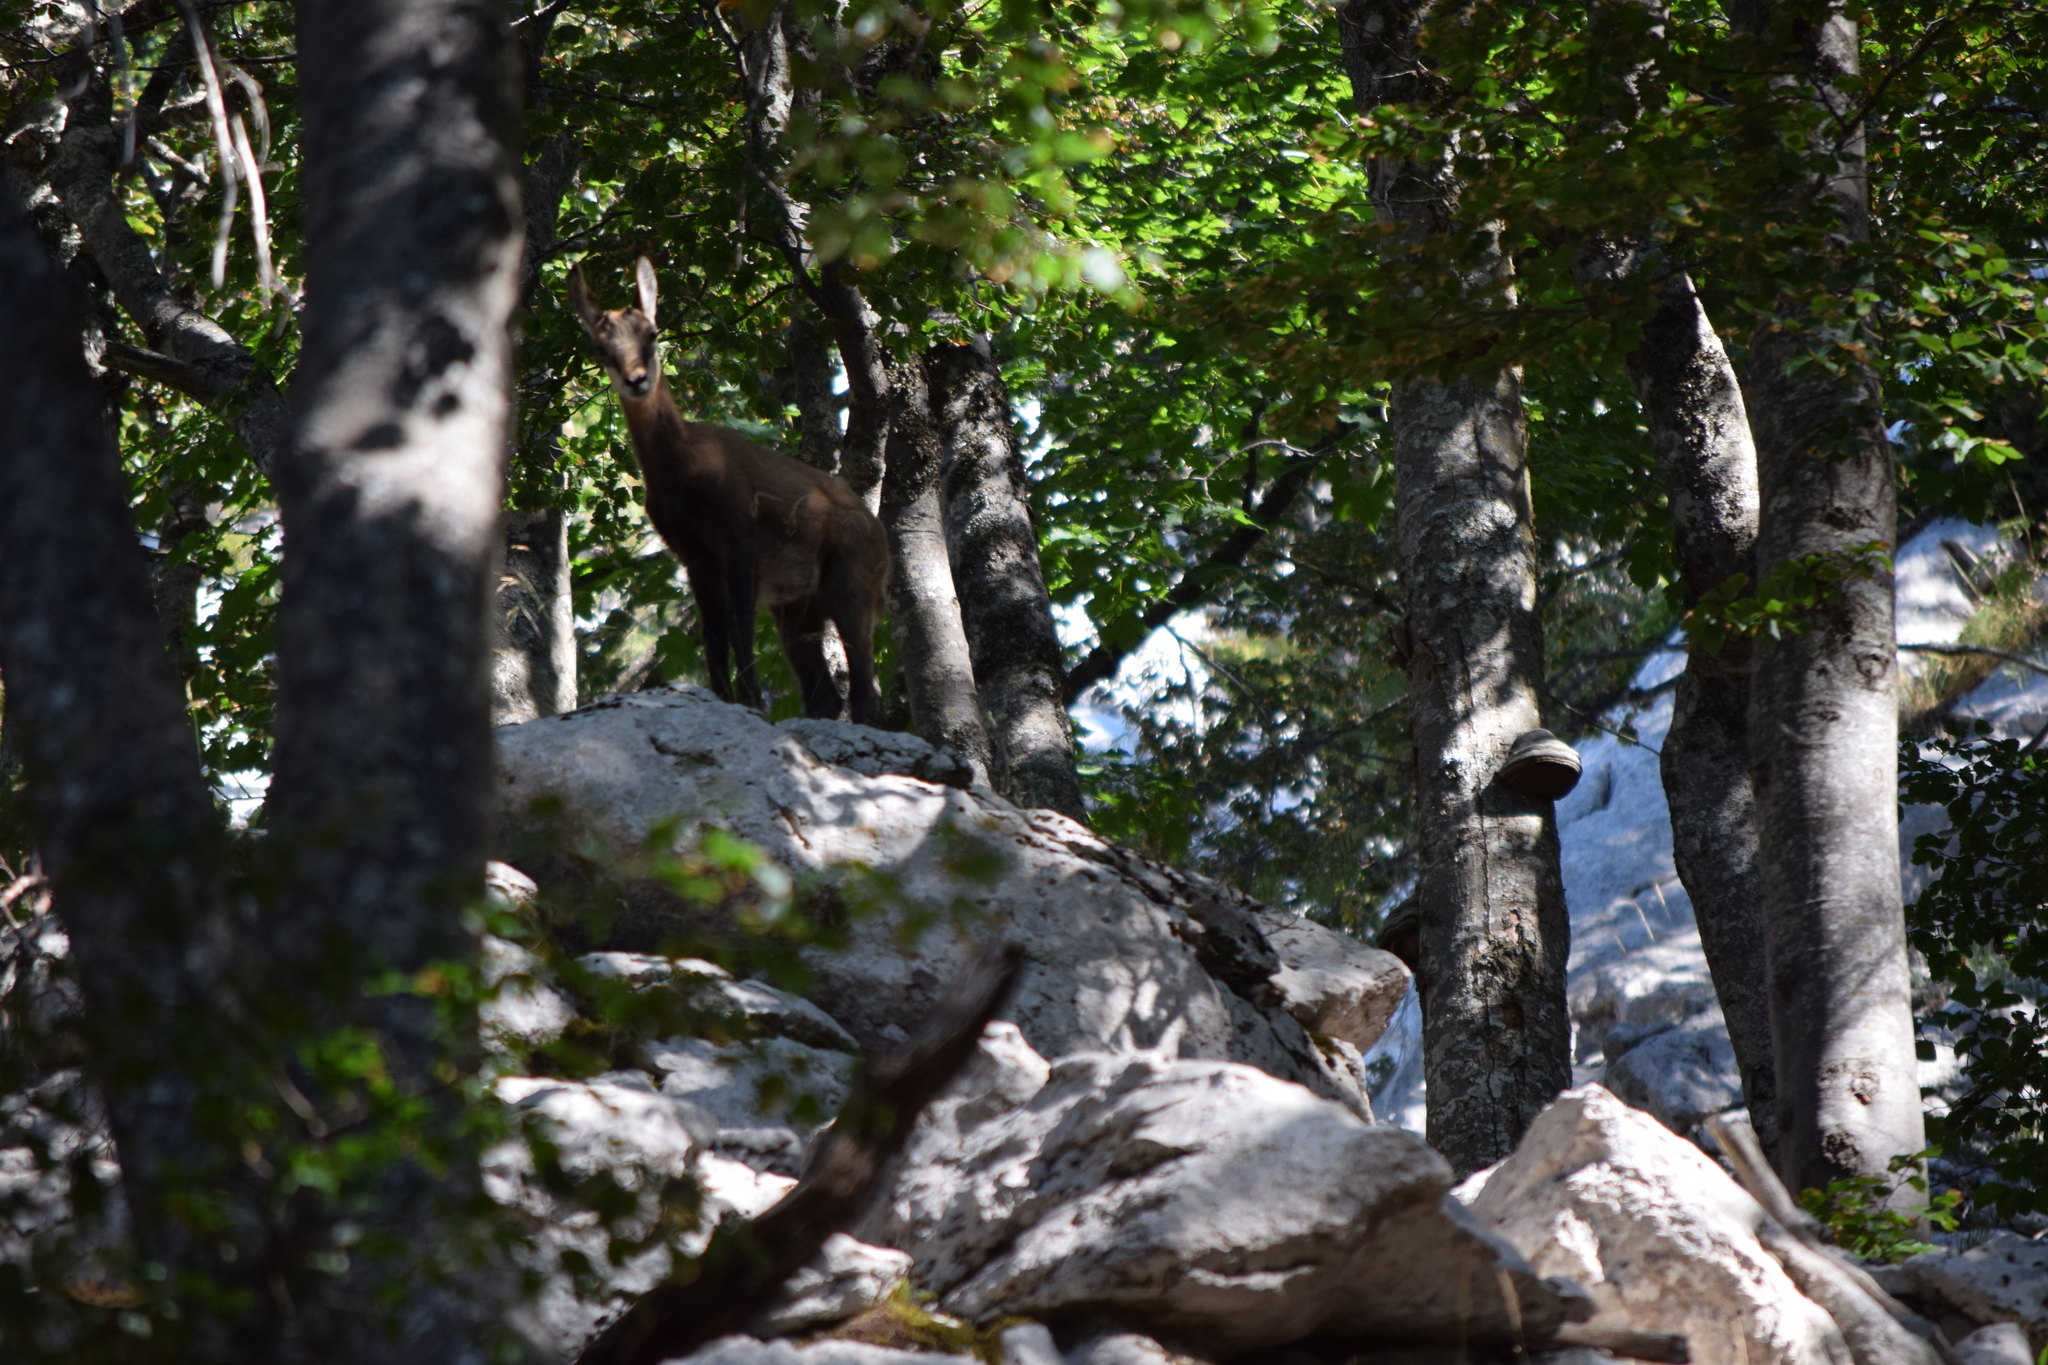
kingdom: Animalia
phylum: Chordata
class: Mammalia
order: Artiodactyla
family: Bovidae
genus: Rupicapra
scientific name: Rupicapra rupicapra
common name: Chamois
